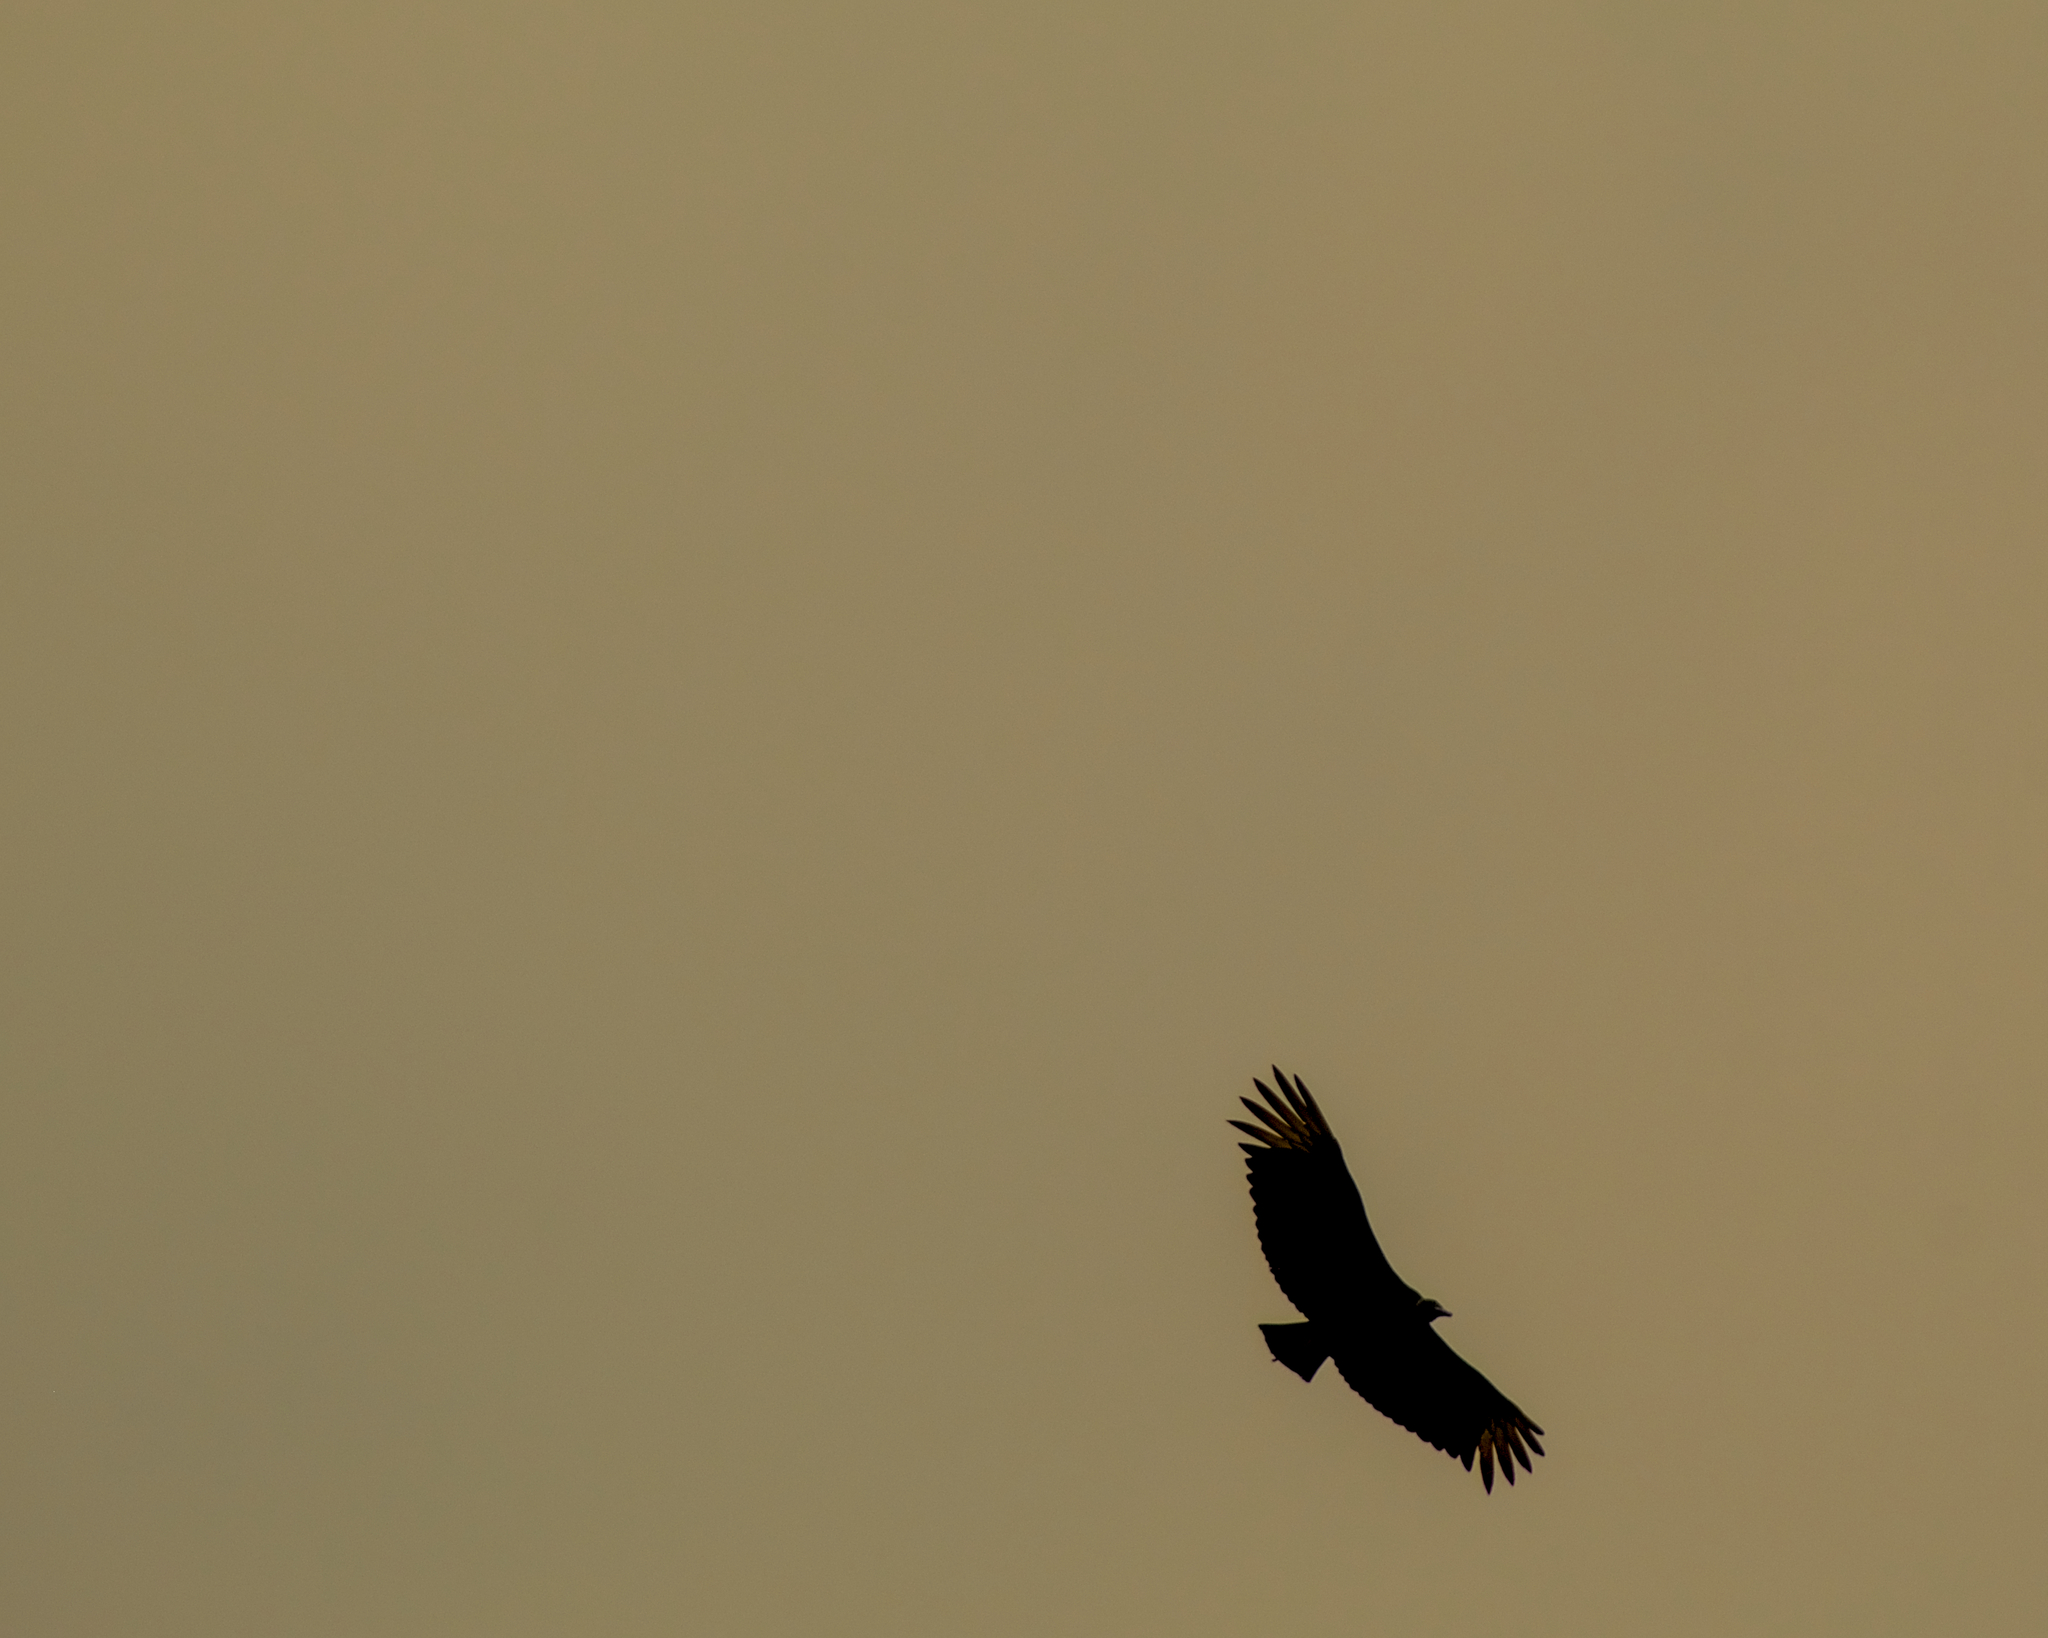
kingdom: Animalia
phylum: Chordata
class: Aves
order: Accipitriformes
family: Cathartidae
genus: Coragyps
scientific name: Coragyps atratus
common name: Black vulture
